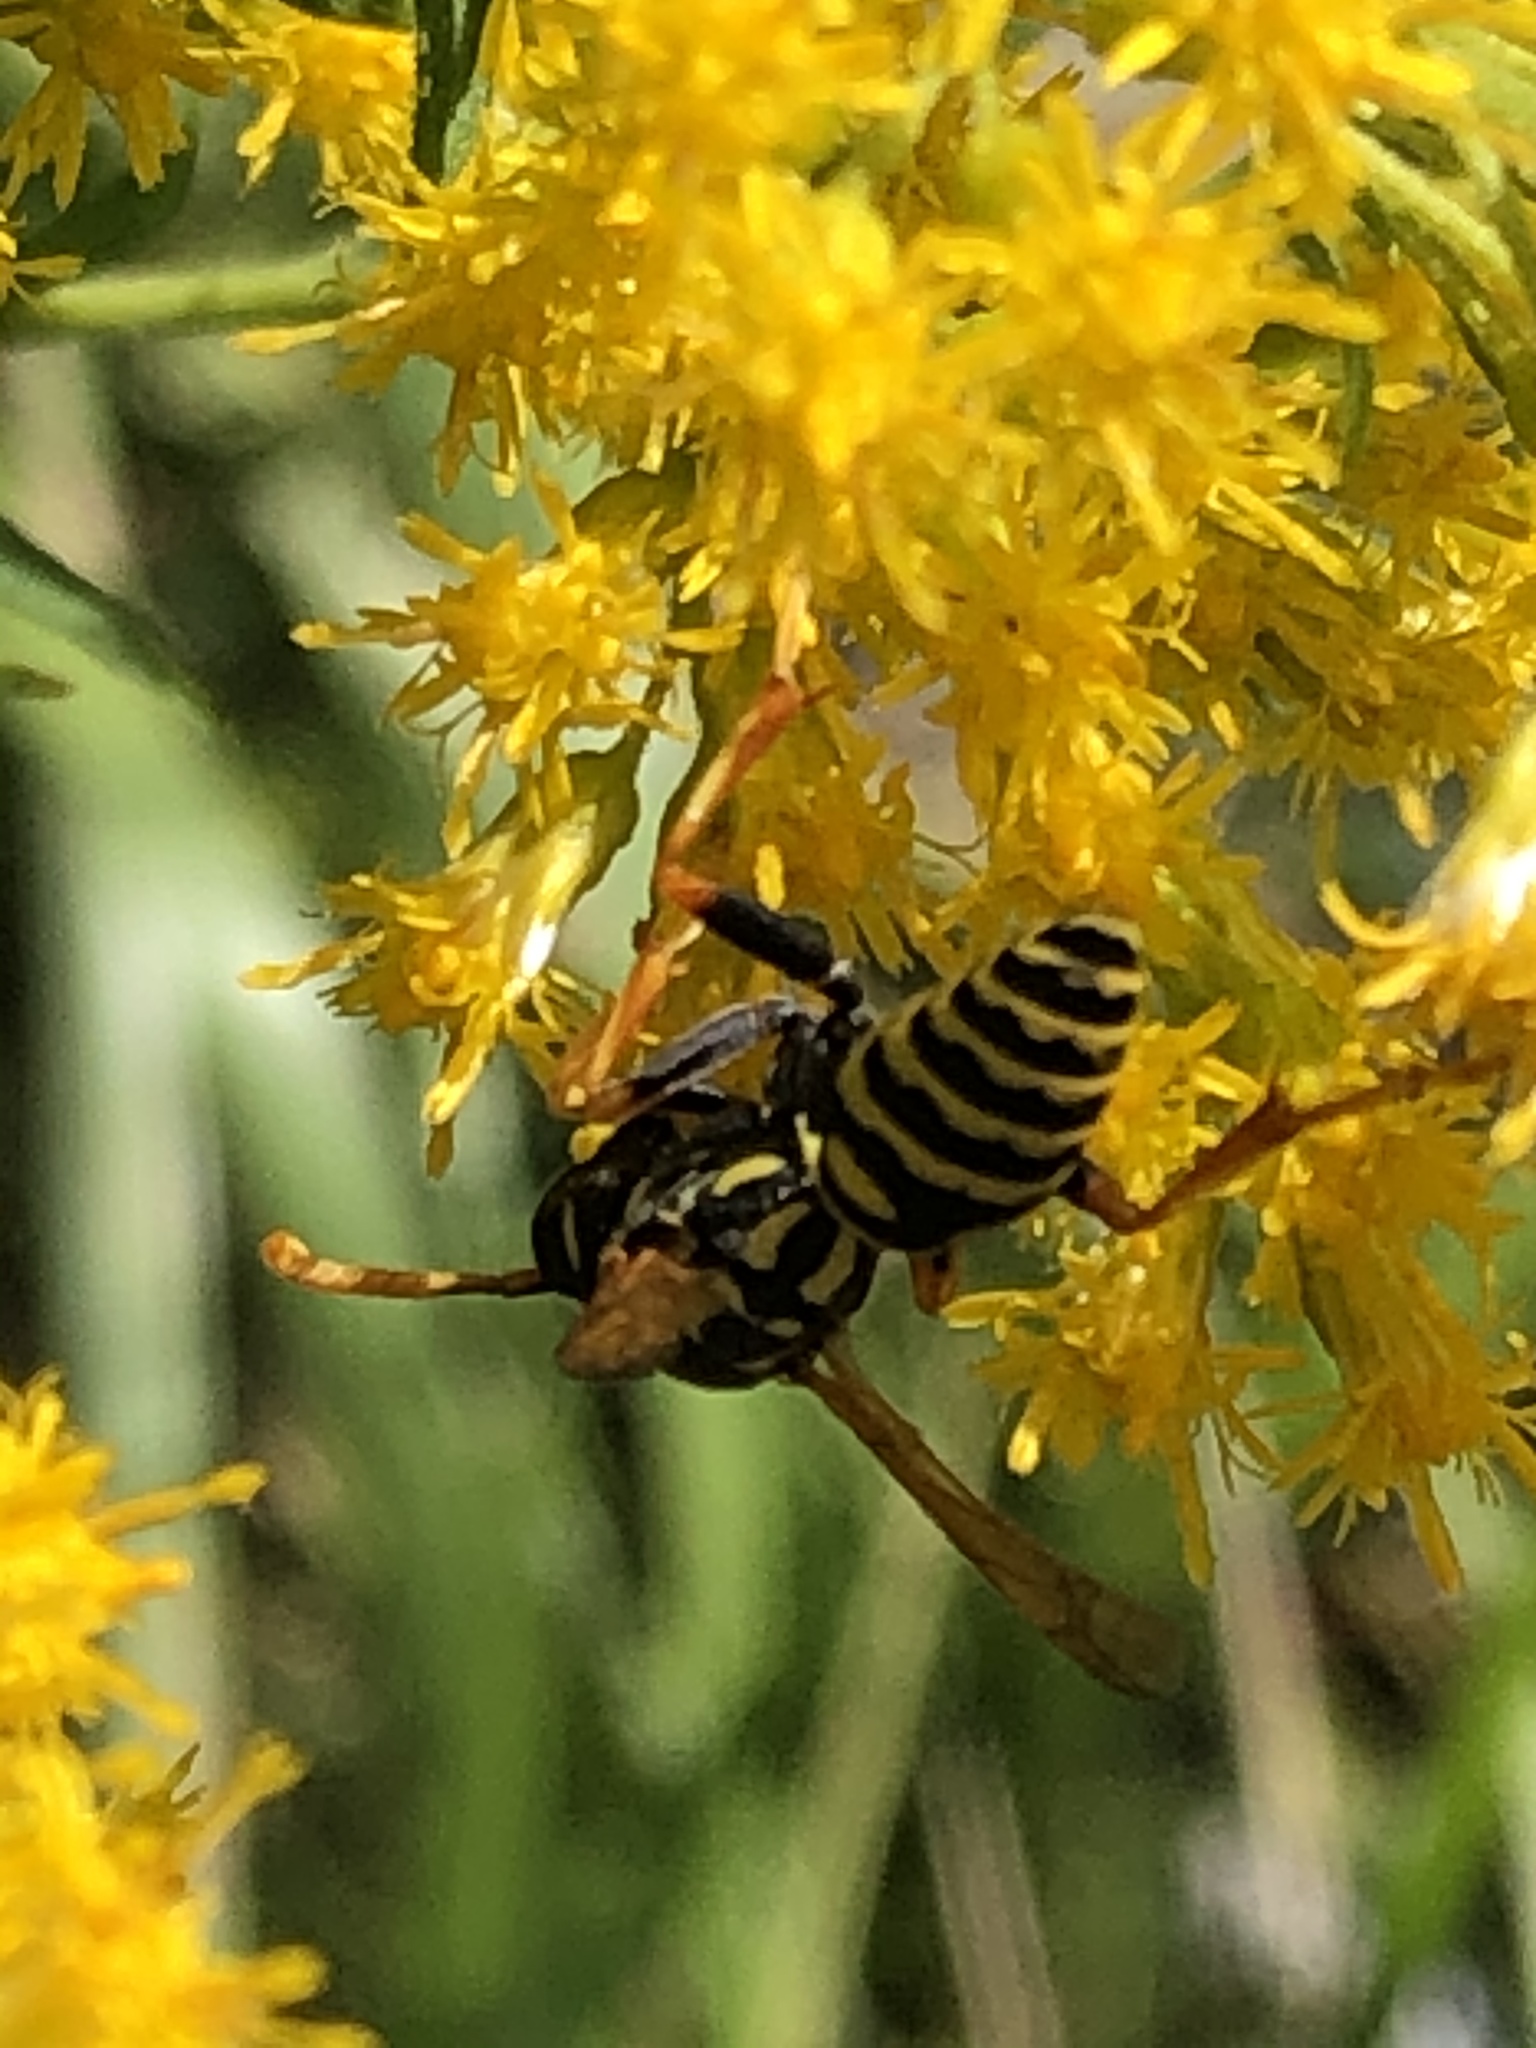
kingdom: Animalia
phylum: Arthropoda
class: Insecta
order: Hymenoptera
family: Eumenidae
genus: Polistes
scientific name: Polistes dominula
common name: Paper wasp
